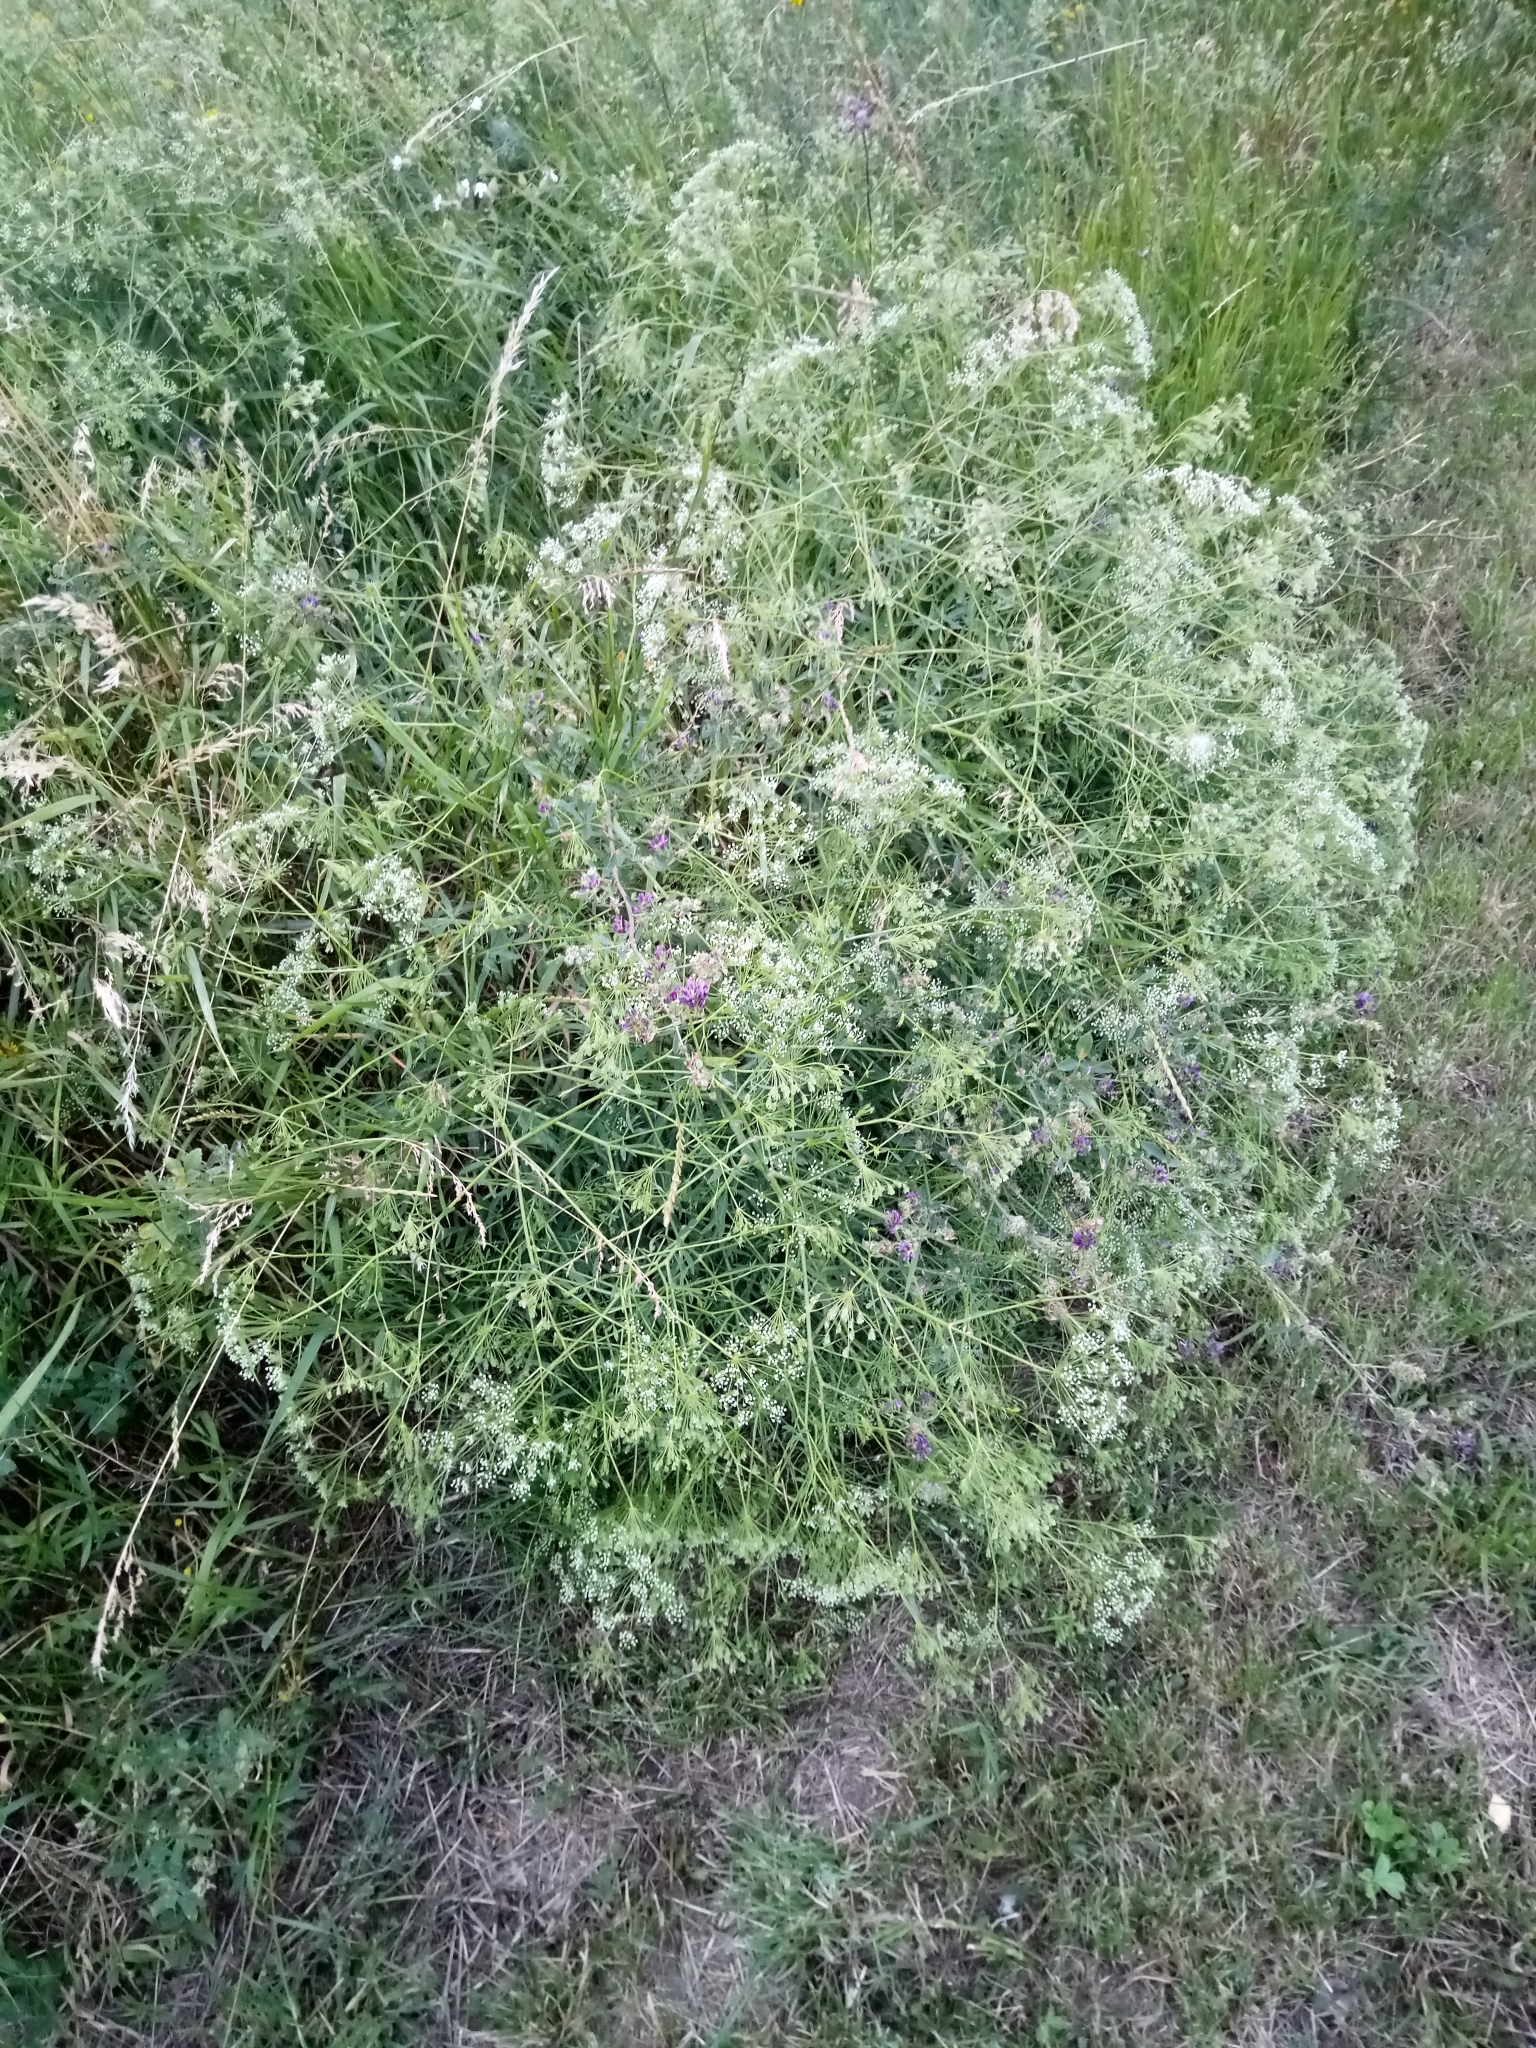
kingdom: Plantae
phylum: Tracheophyta
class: Magnoliopsida
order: Apiales
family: Apiaceae
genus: Falcaria
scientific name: Falcaria vulgaris
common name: Longleaf
